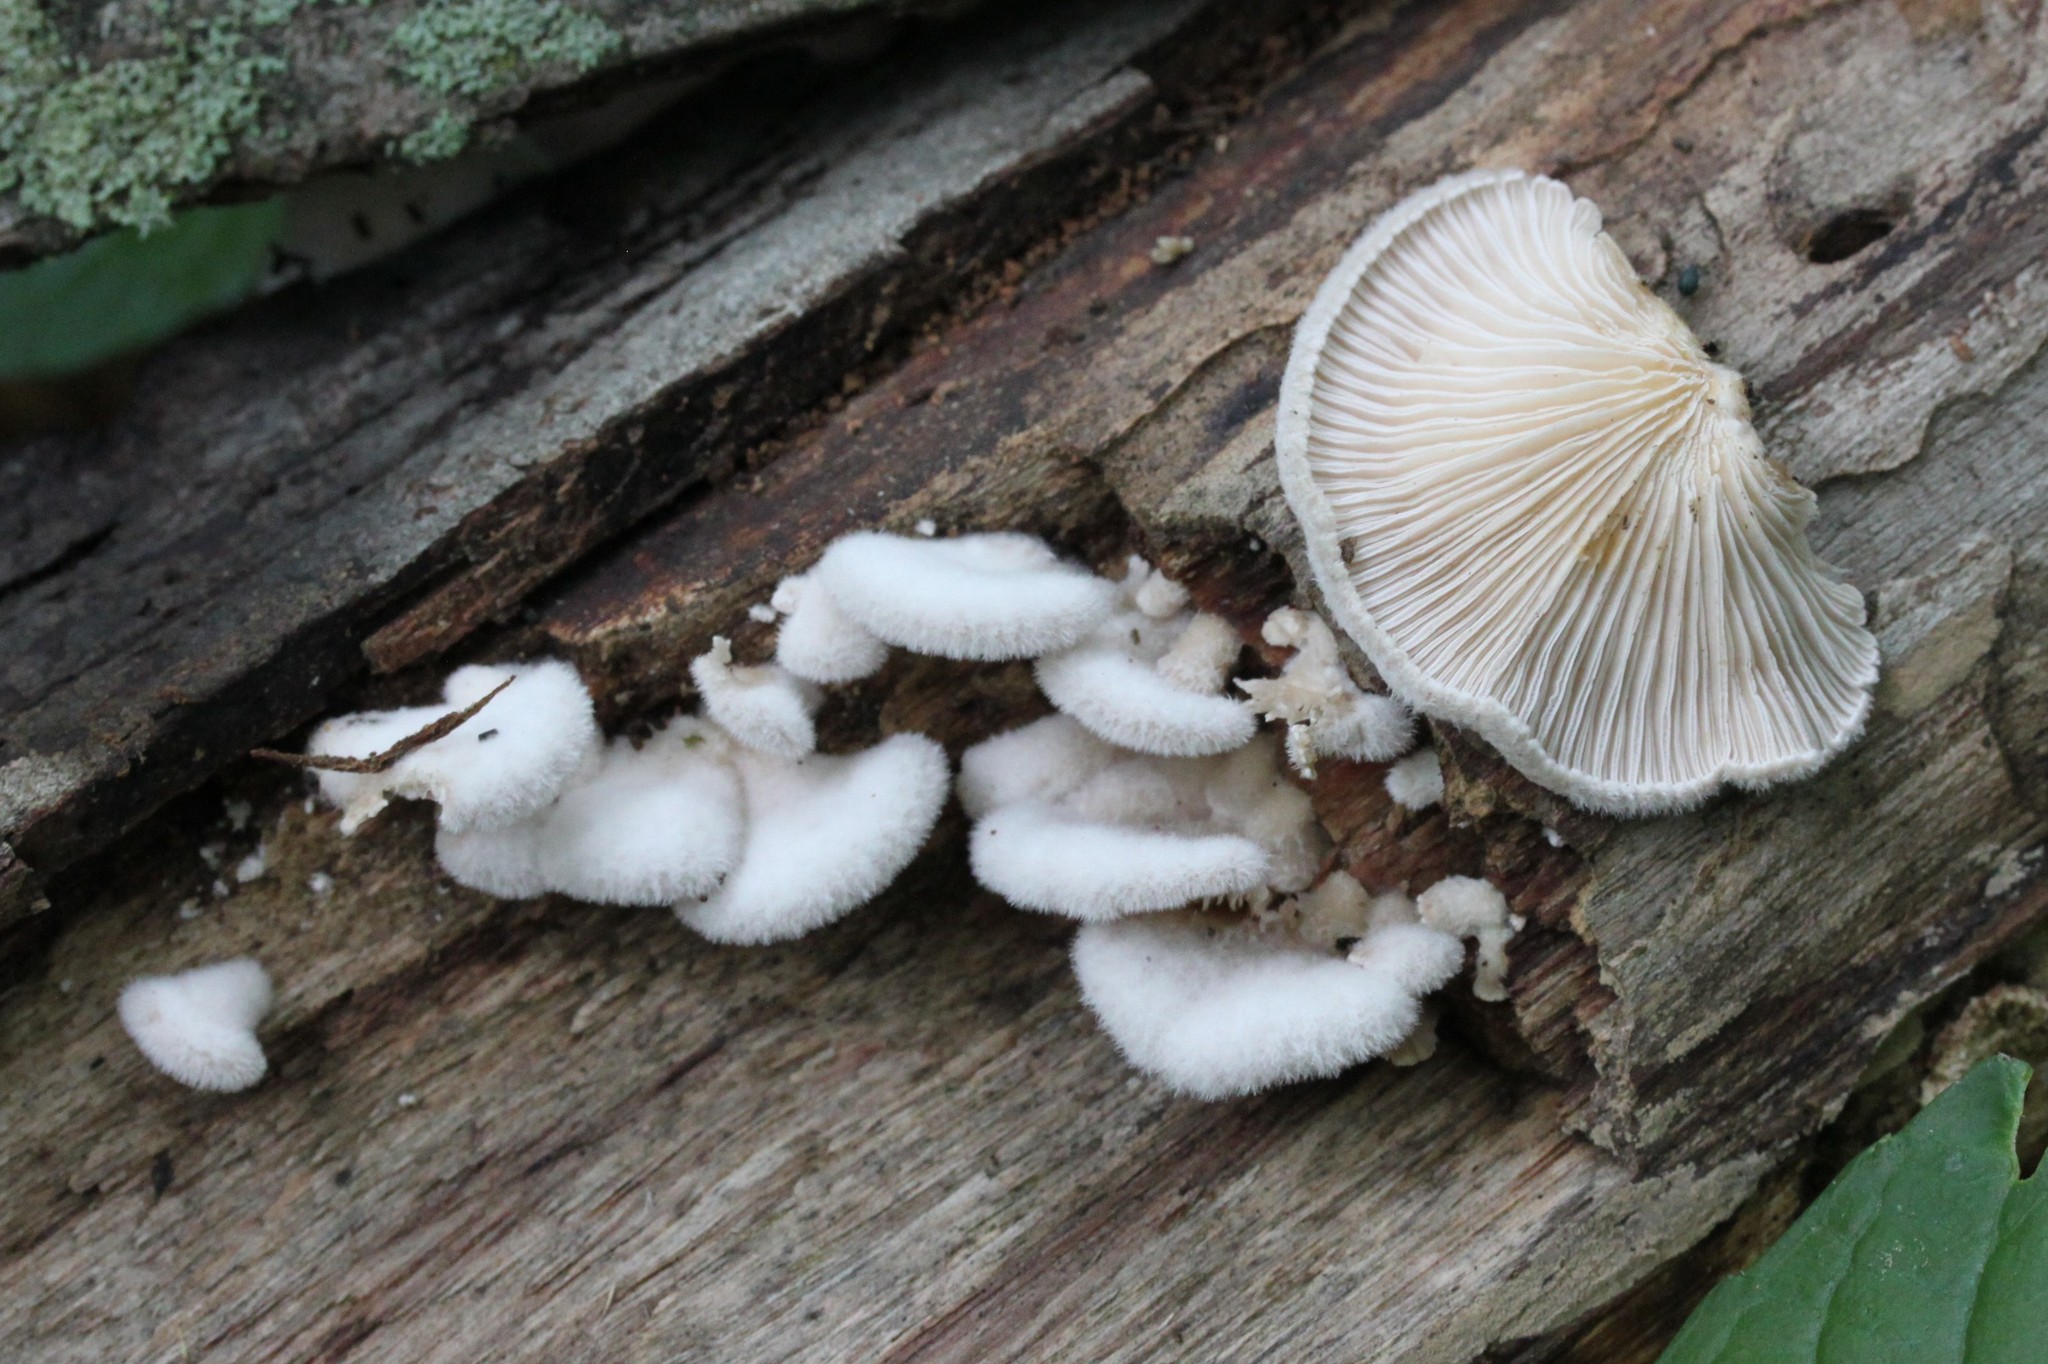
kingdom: Fungi
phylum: Basidiomycota
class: Agaricomycetes
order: Agaricales
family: Schizophyllaceae
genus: Schizophyllum
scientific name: Schizophyllum commune
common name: Common porecrust
